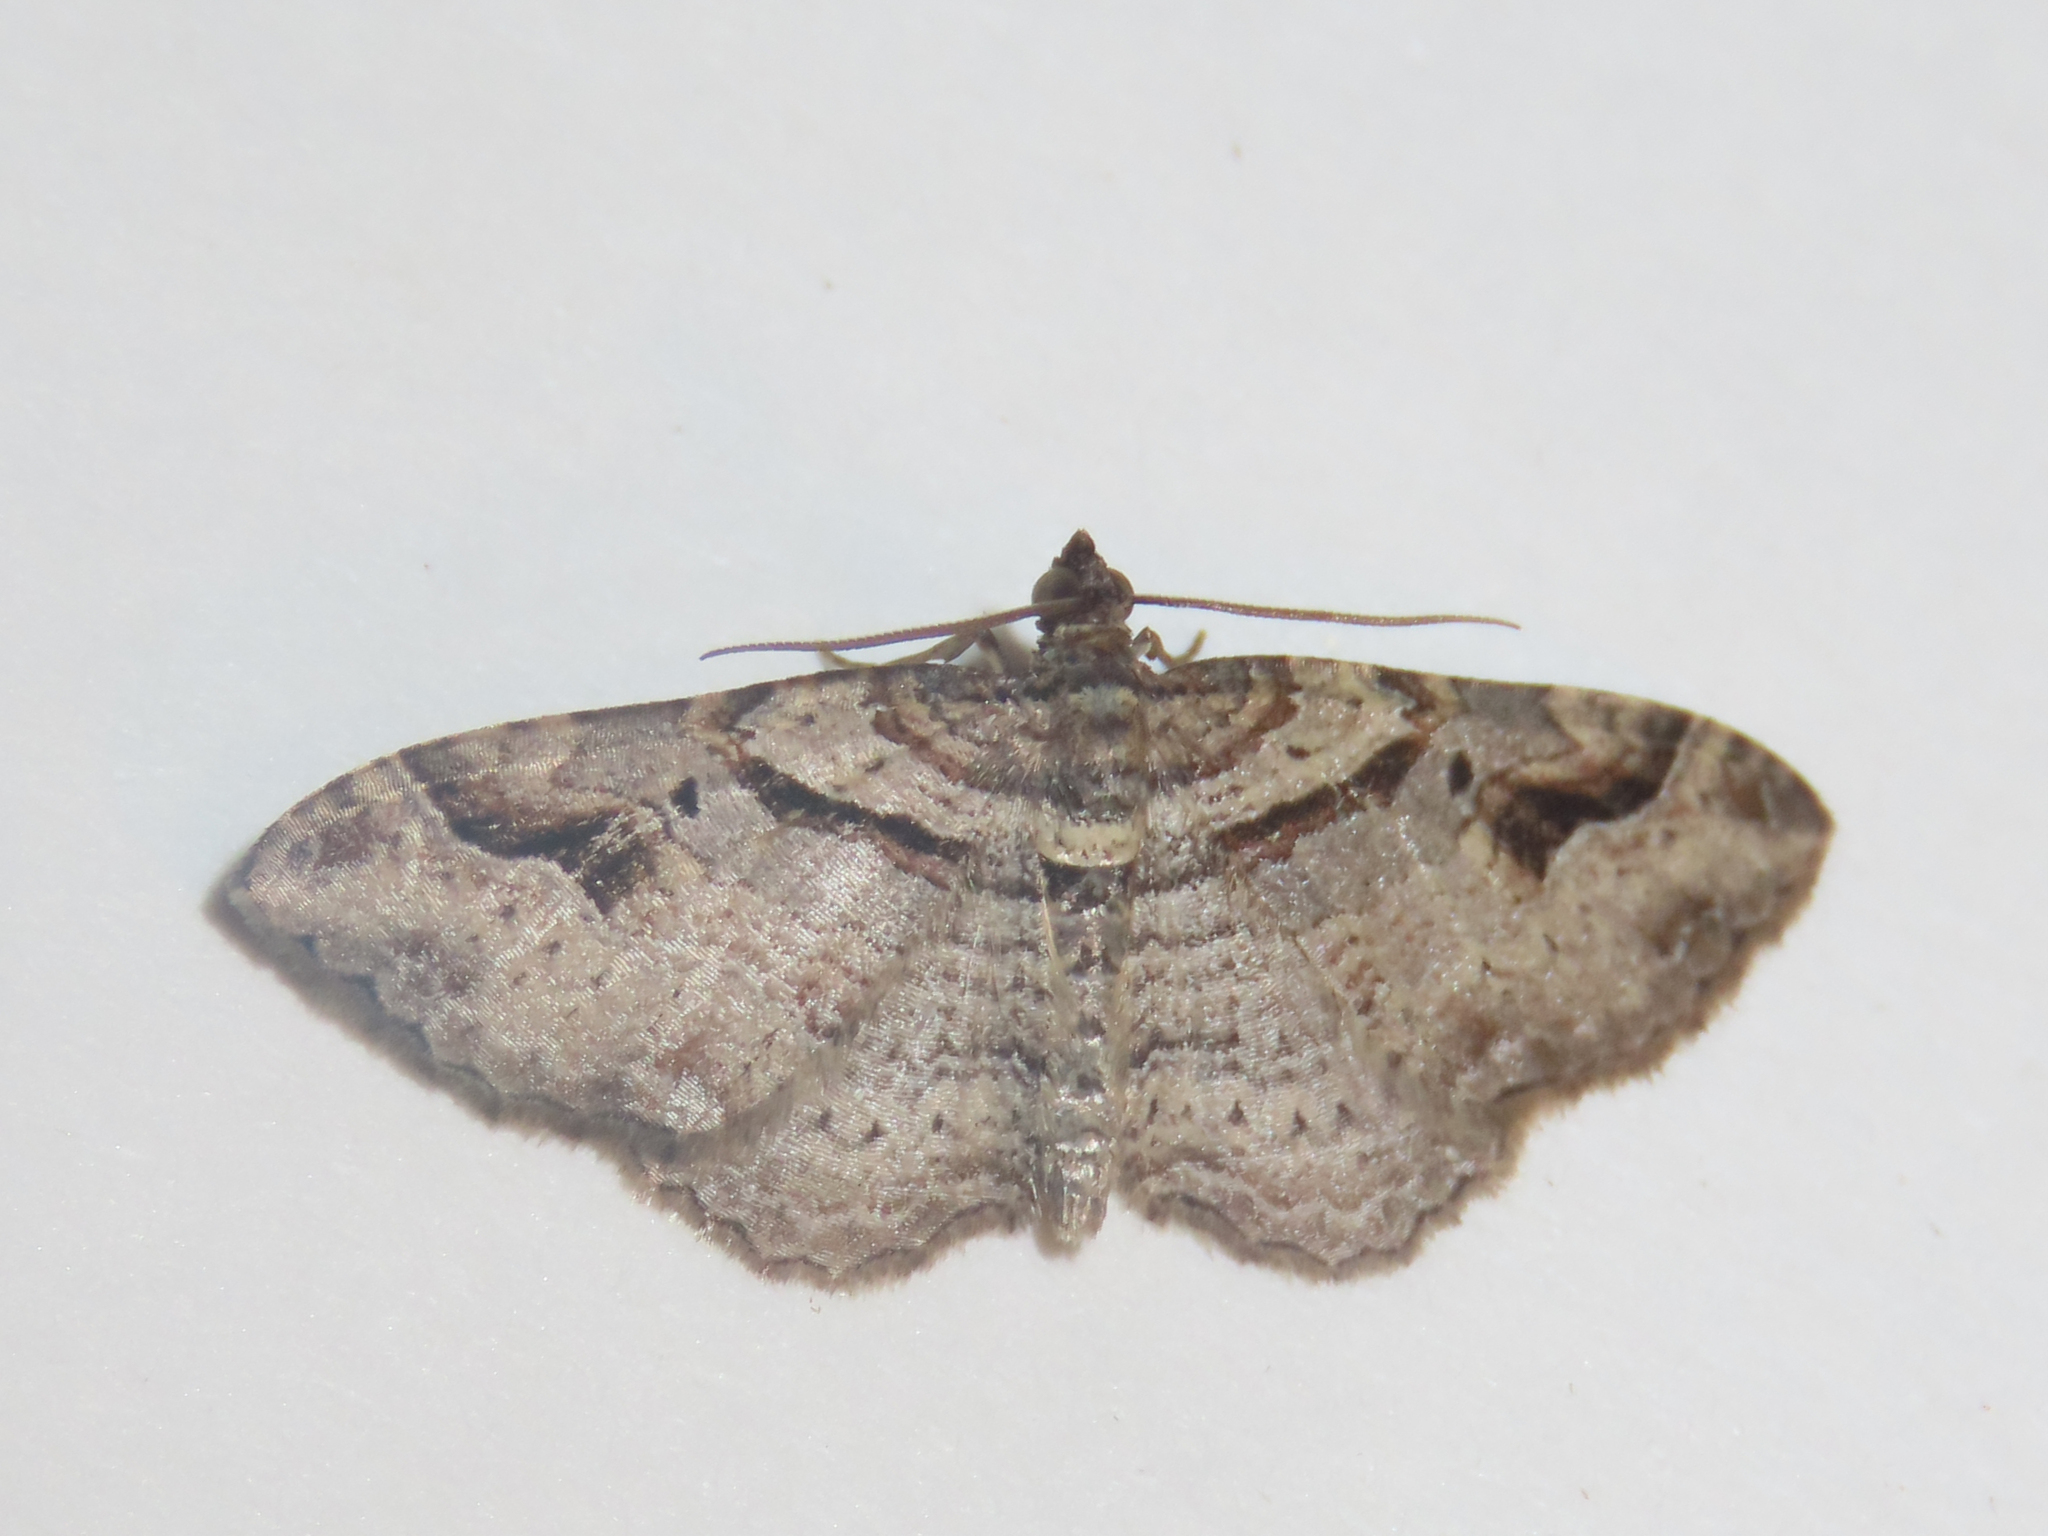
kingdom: Animalia
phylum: Arthropoda
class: Insecta
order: Lepidoptera
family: Geometridae
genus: Costaconvexa
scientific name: Costaconvexa centrostrigaria
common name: Bent-line carpet
